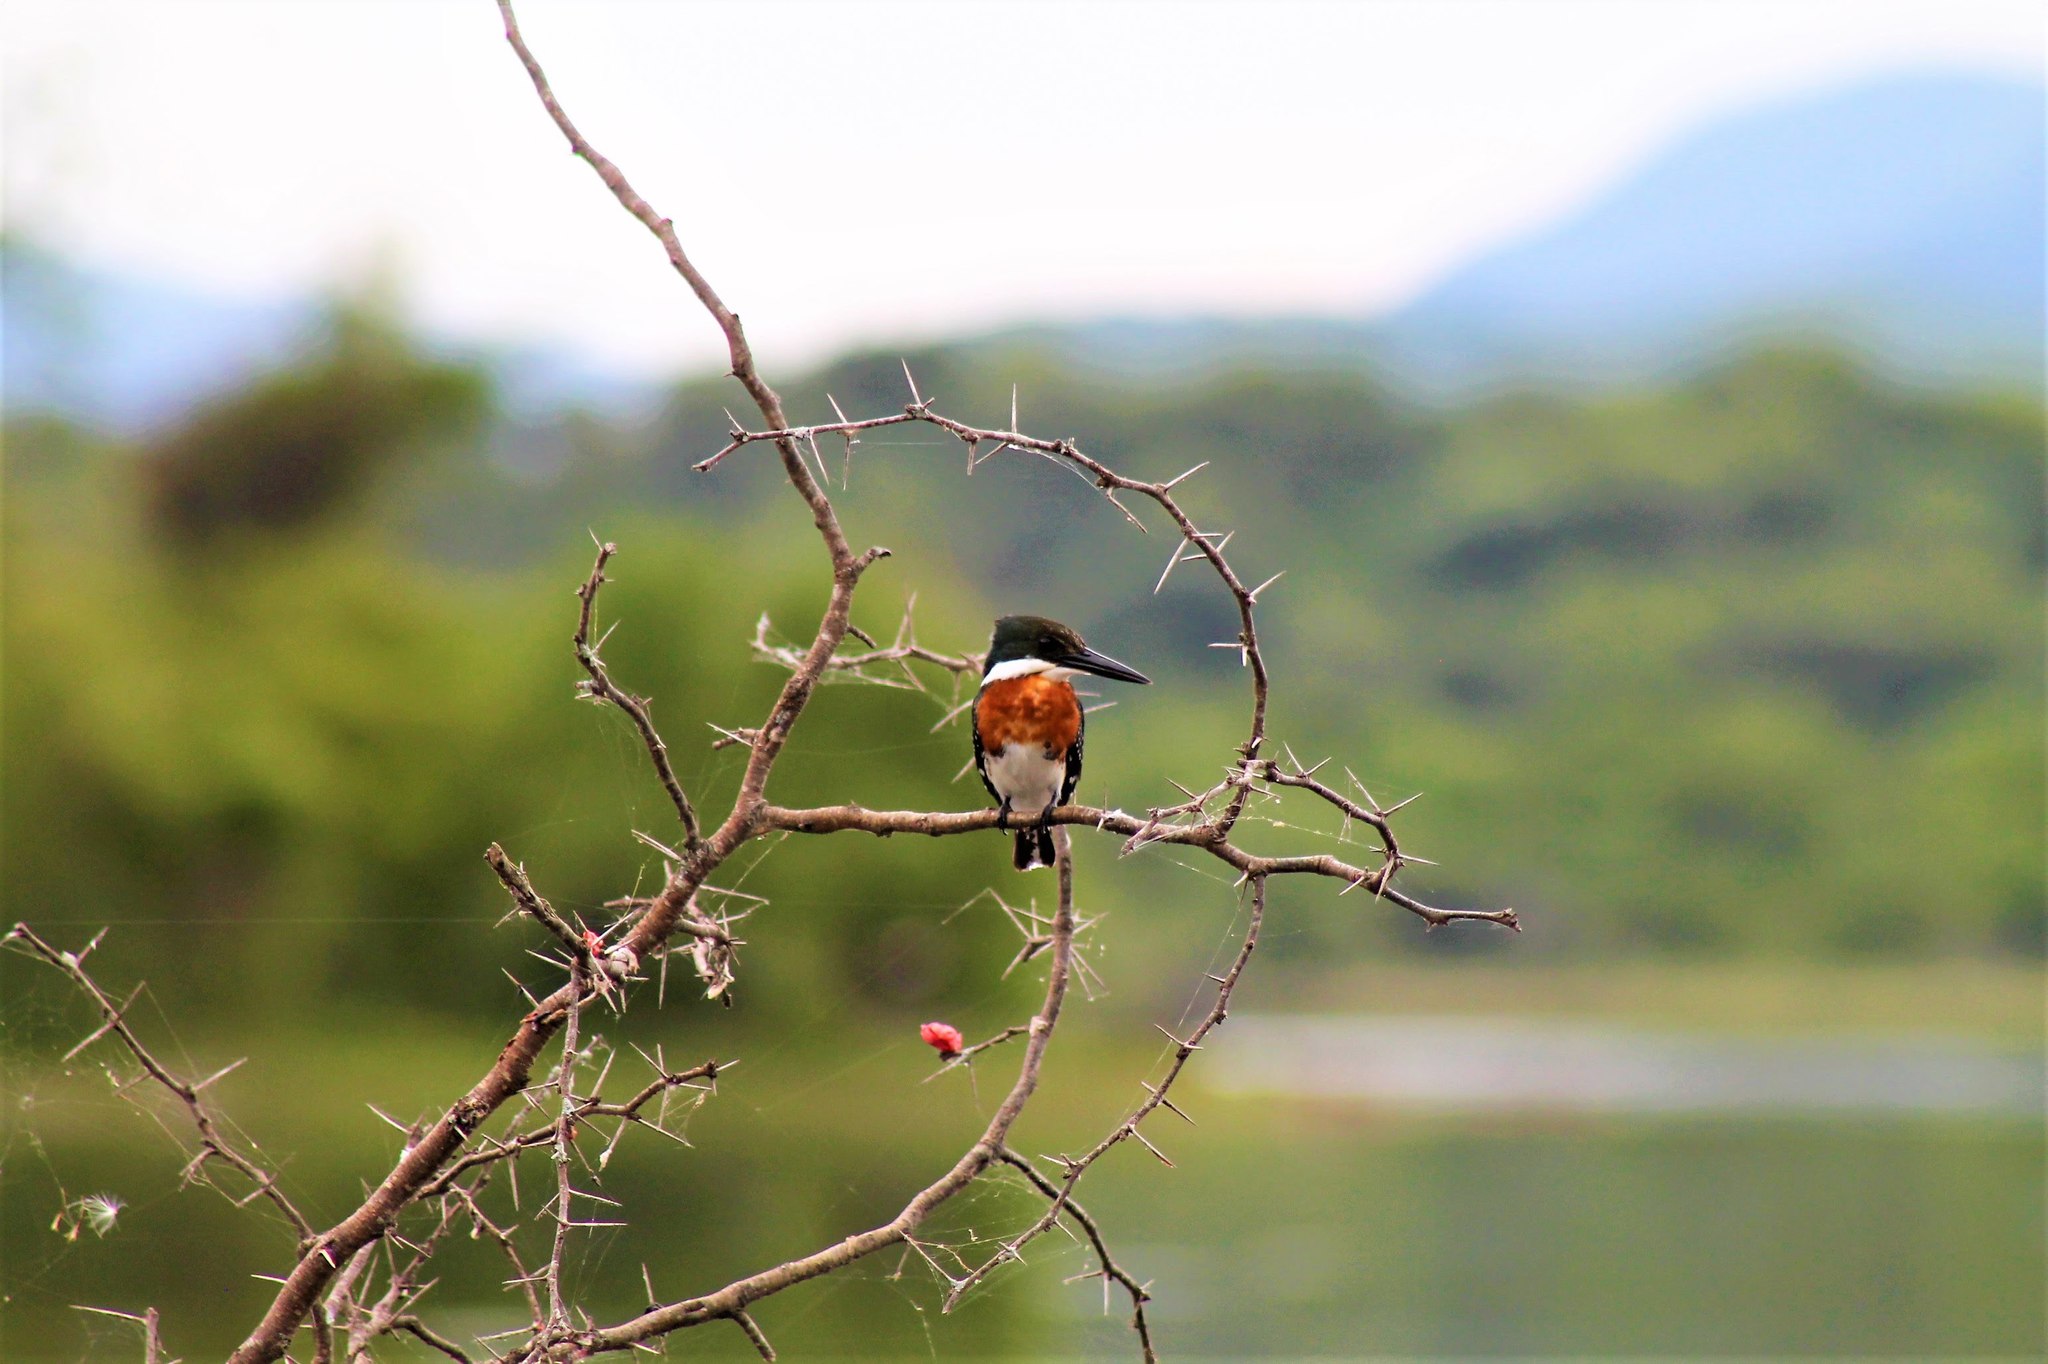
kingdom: Animalia
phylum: Chordata
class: Aves
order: Coraciiformes
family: Alcedinidae
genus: Chloroceryle
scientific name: Chloroceryle americana
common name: Green kingfisher
